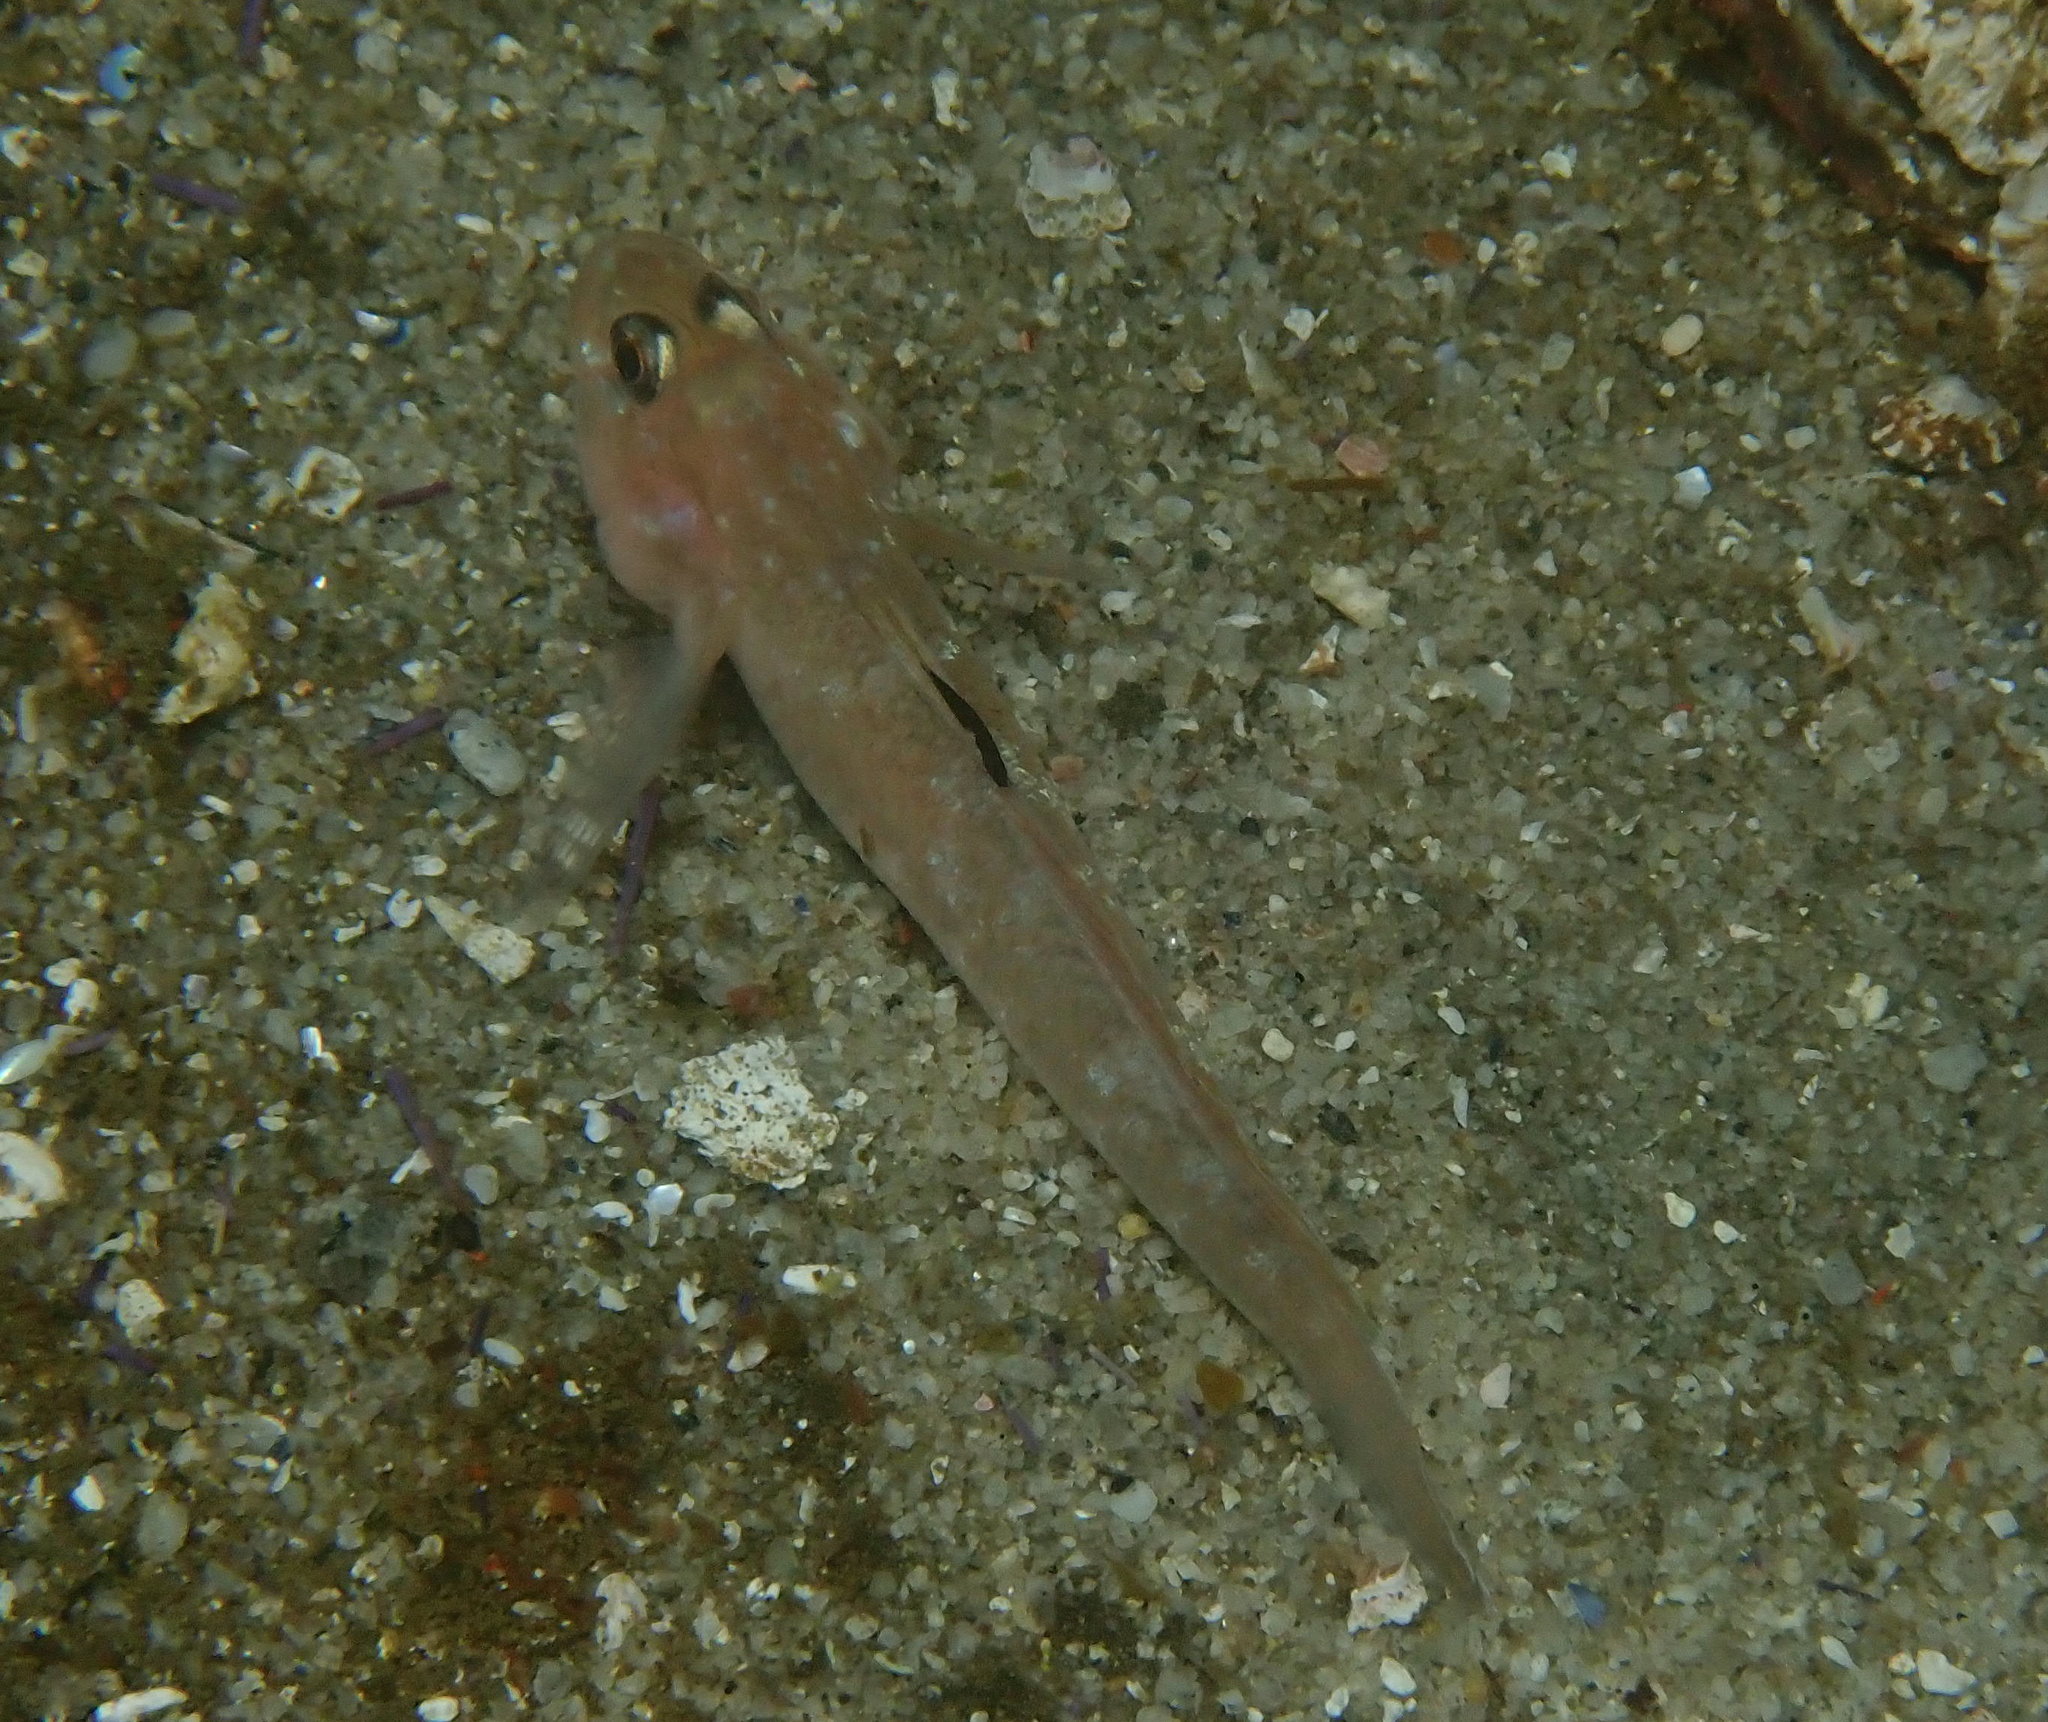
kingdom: Animalia
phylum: Chordata
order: Perciformes
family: Gobiidae
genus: Rhinogobiops
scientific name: Rhinogobiops nicholsii
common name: Blackeye goby
